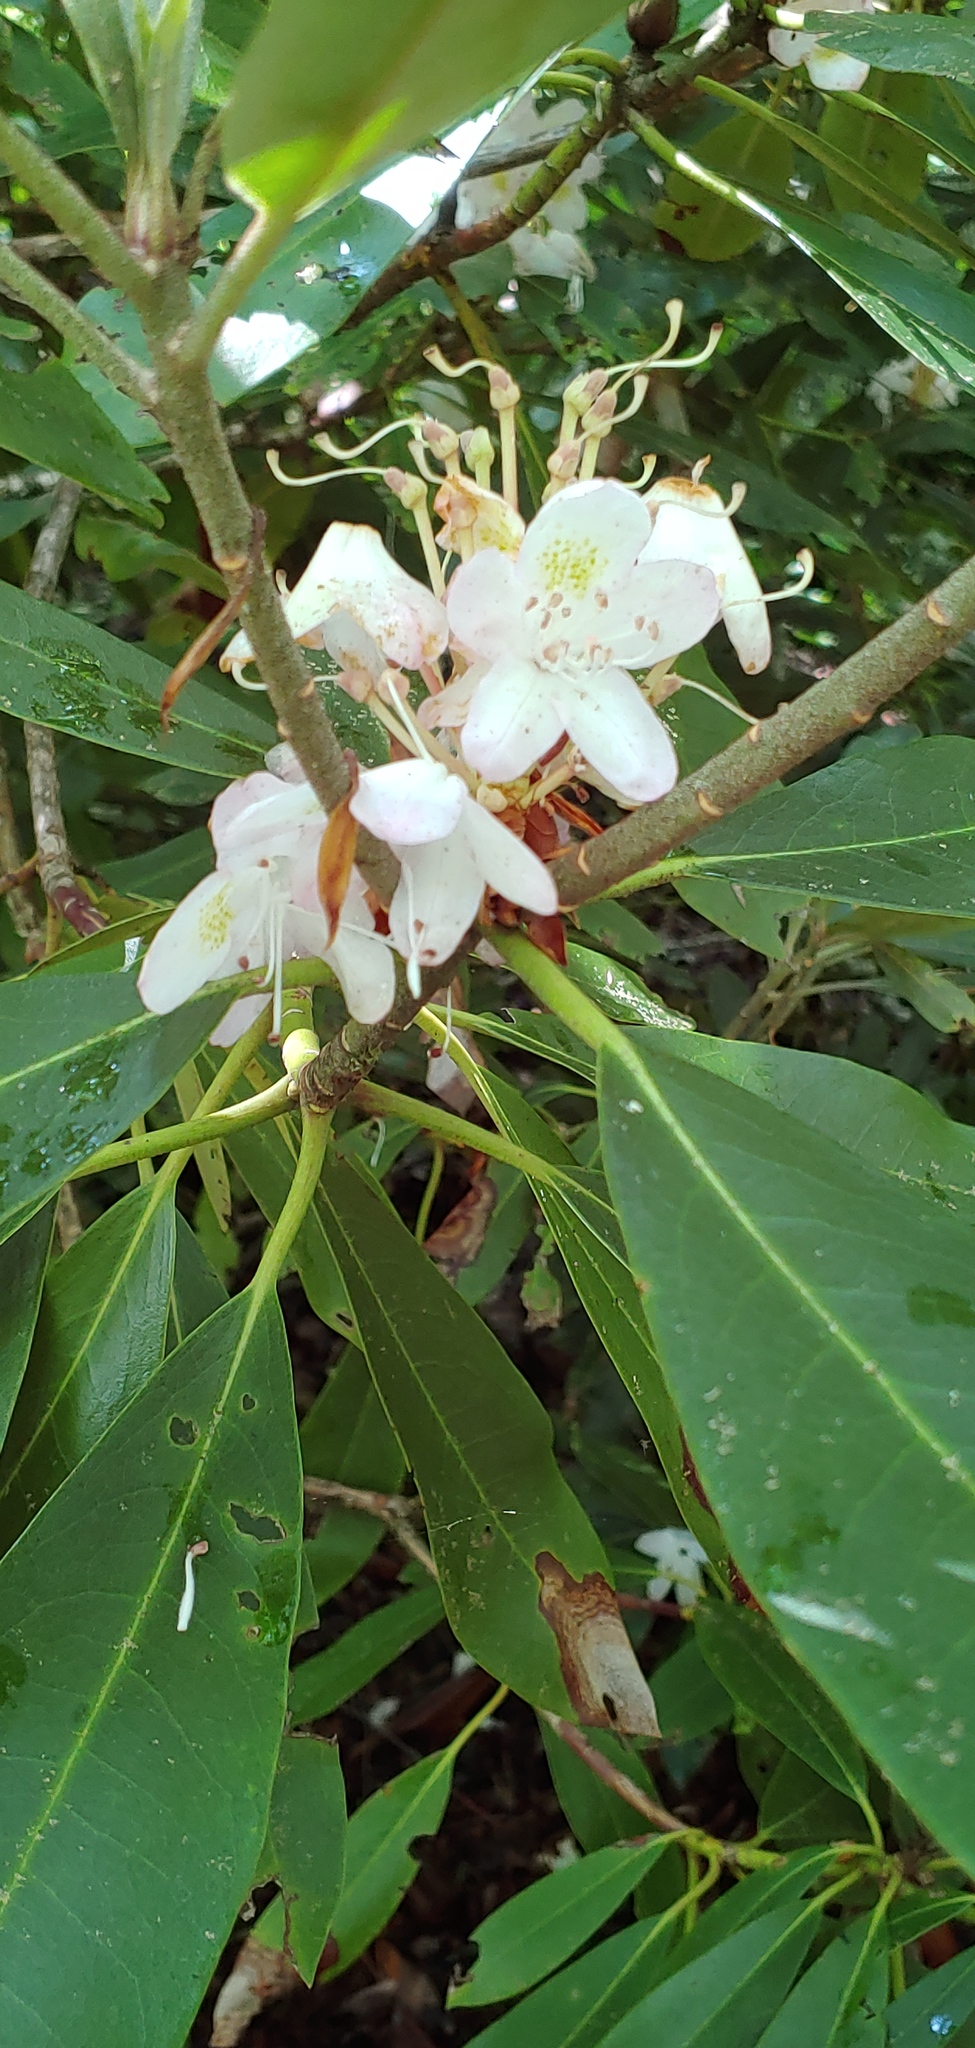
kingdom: Plantae
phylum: Tracheophyta
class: Magnoliopsida
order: Ericales
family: Ericaceae
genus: Rhododendron
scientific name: Rhododendron maximum
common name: Great rhododendron
